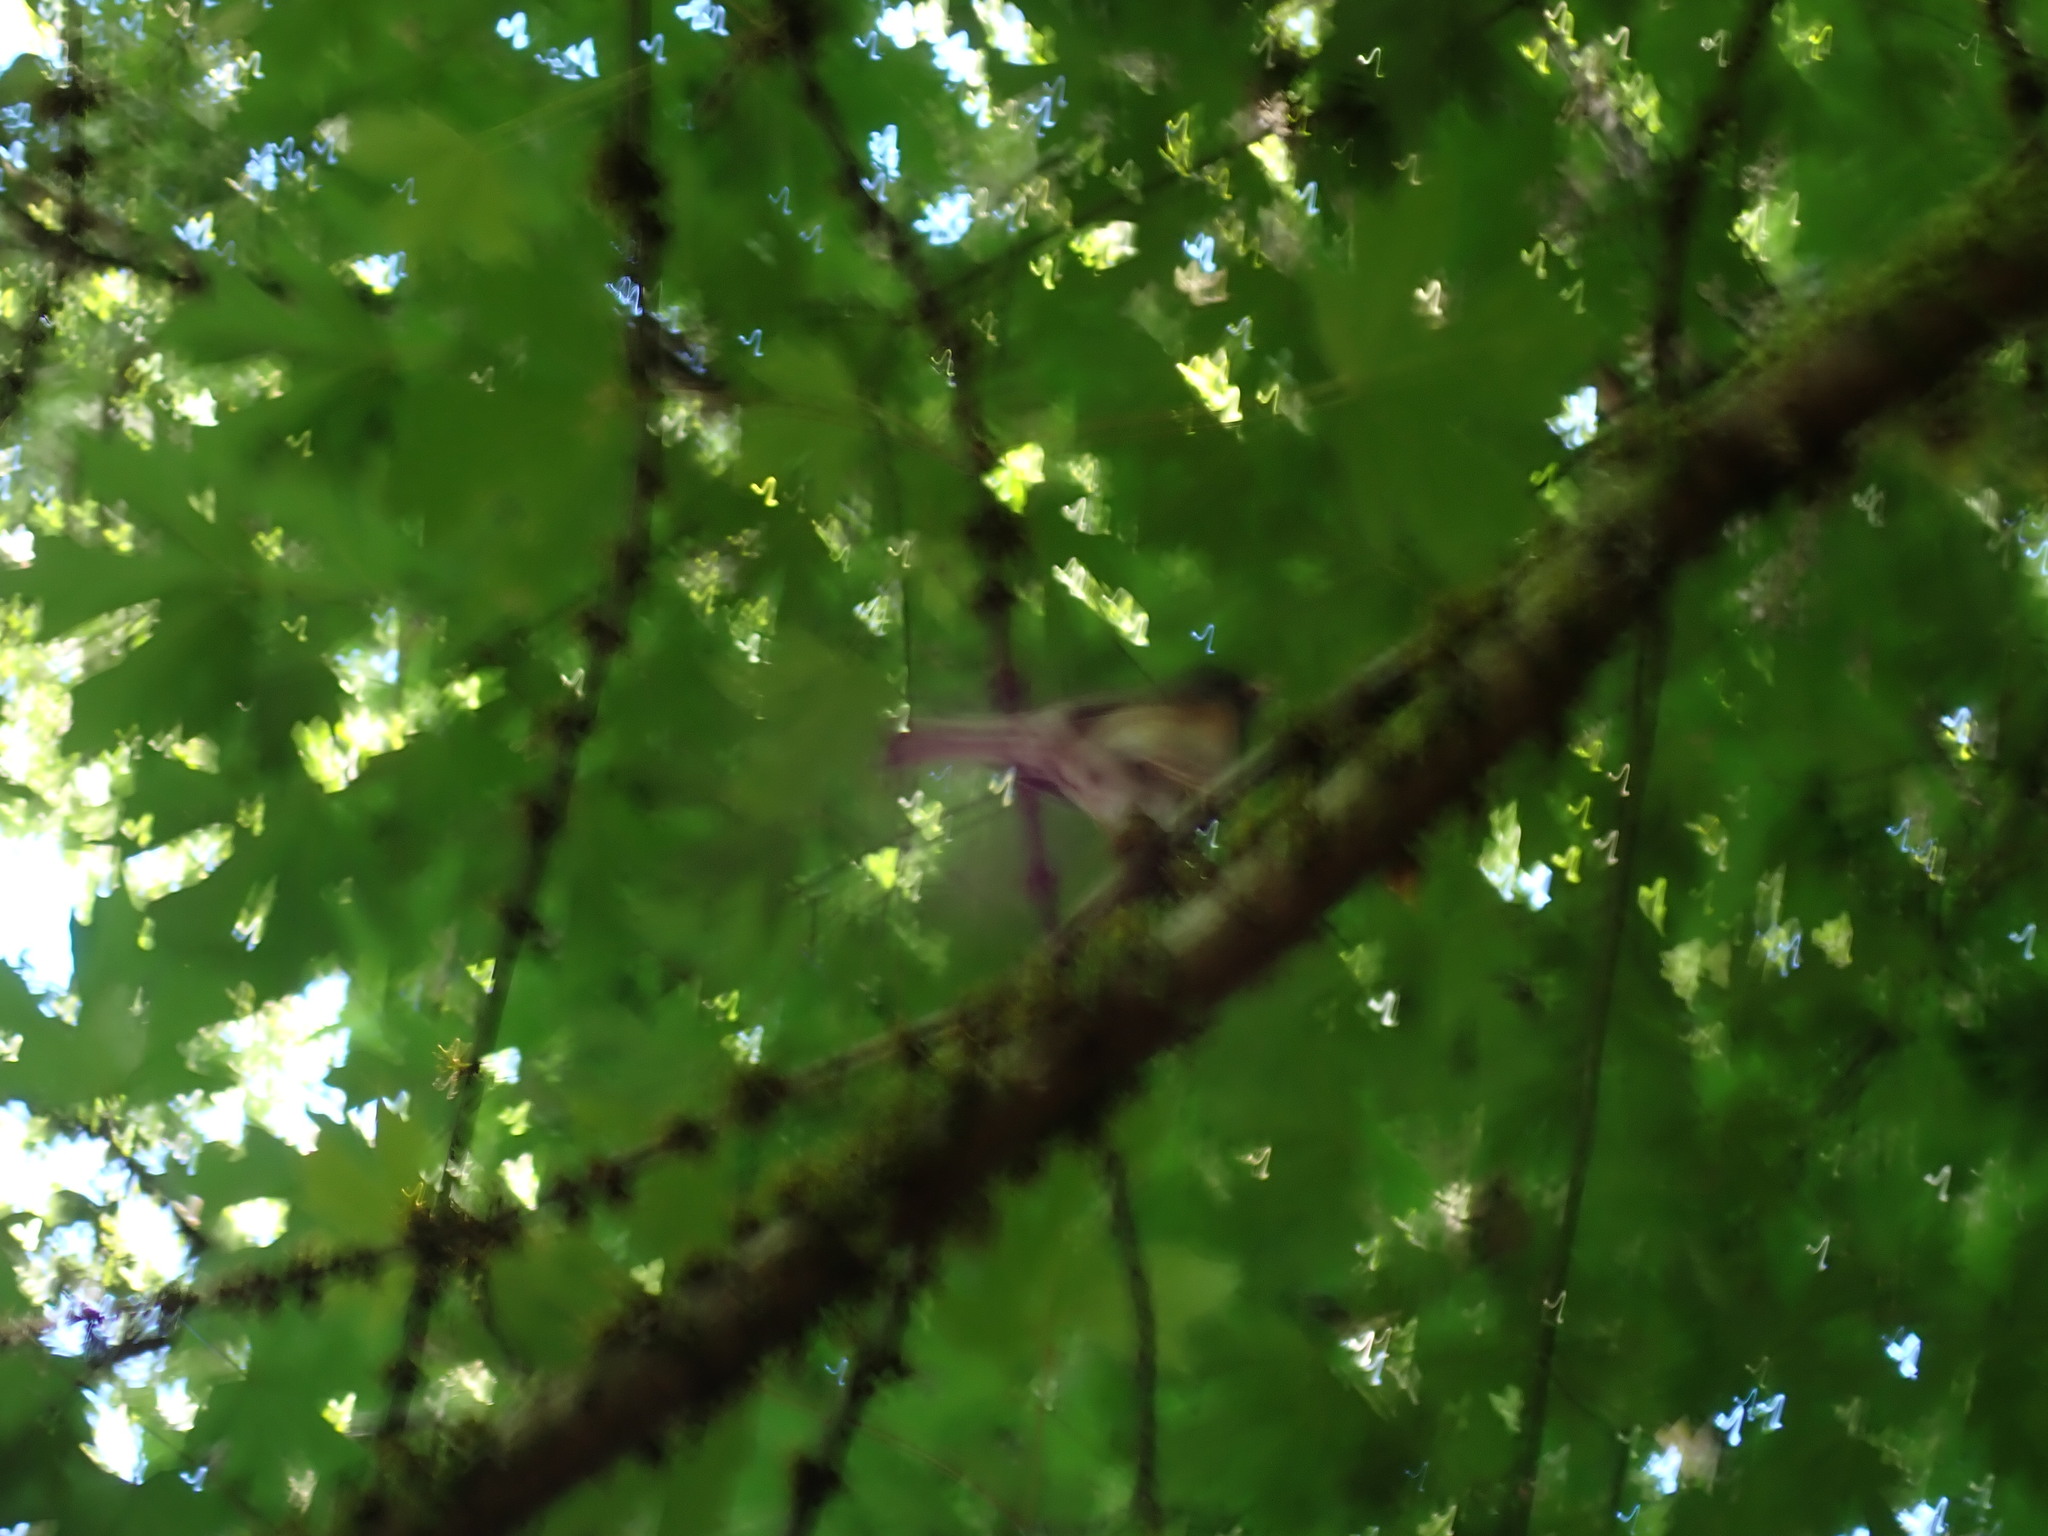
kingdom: Animalia
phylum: Chordata
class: Aves
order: Passeriformes
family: Passerellidae
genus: Junco
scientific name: Junco hyemalis
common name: Dark-eyed junco
